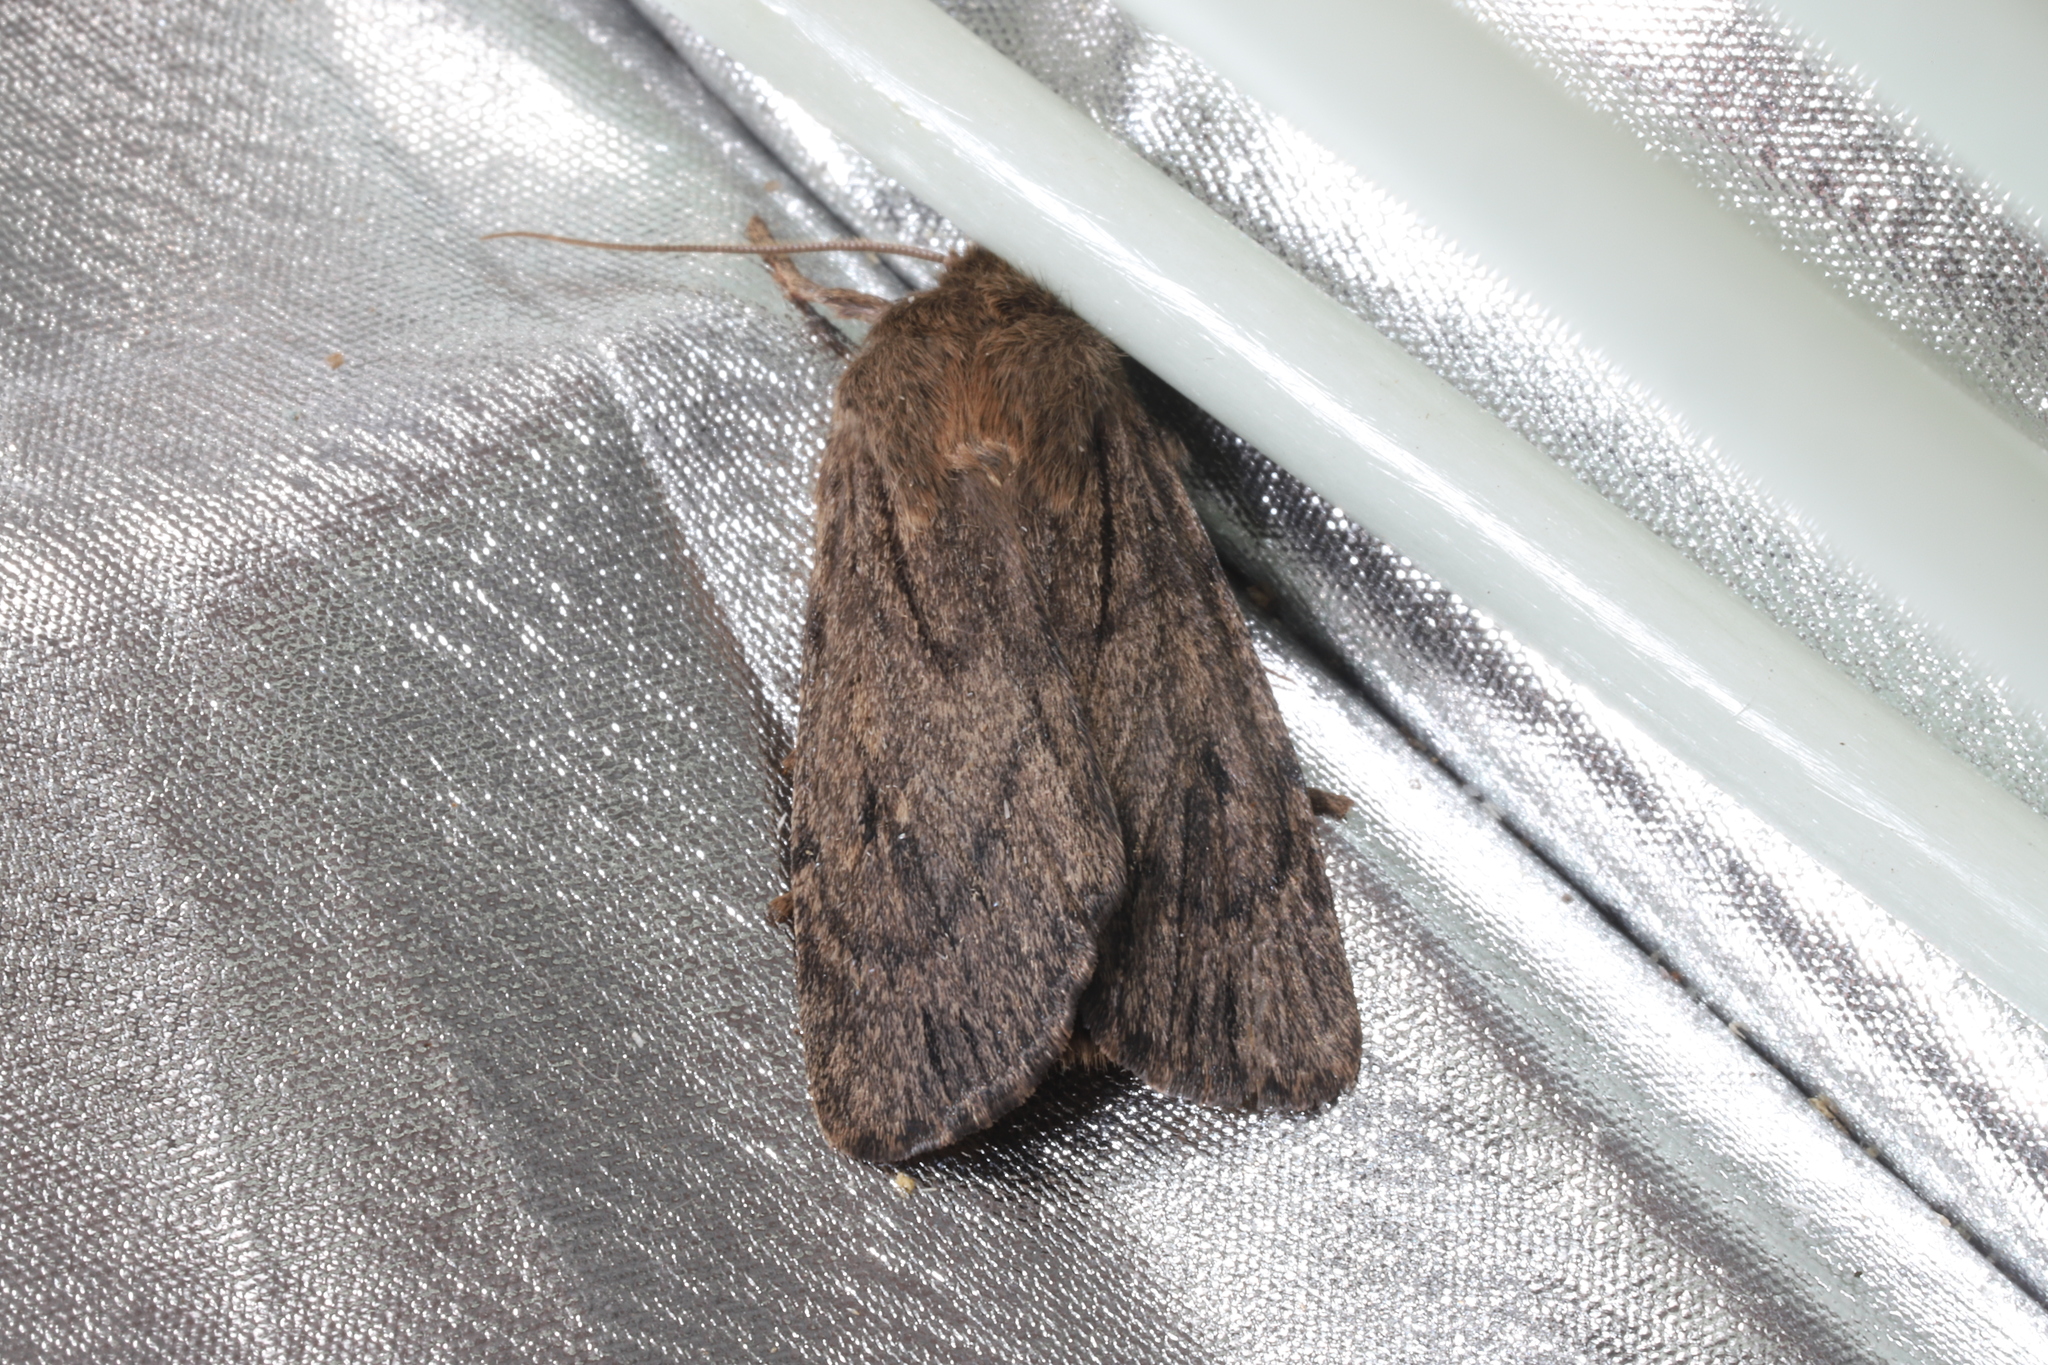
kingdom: Animalia
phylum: Arthropoda
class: Insecta
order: Lepidoptera
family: Noctuidae
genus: Ufeus
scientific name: Ufeus satyricus
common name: Brown satyr moth
